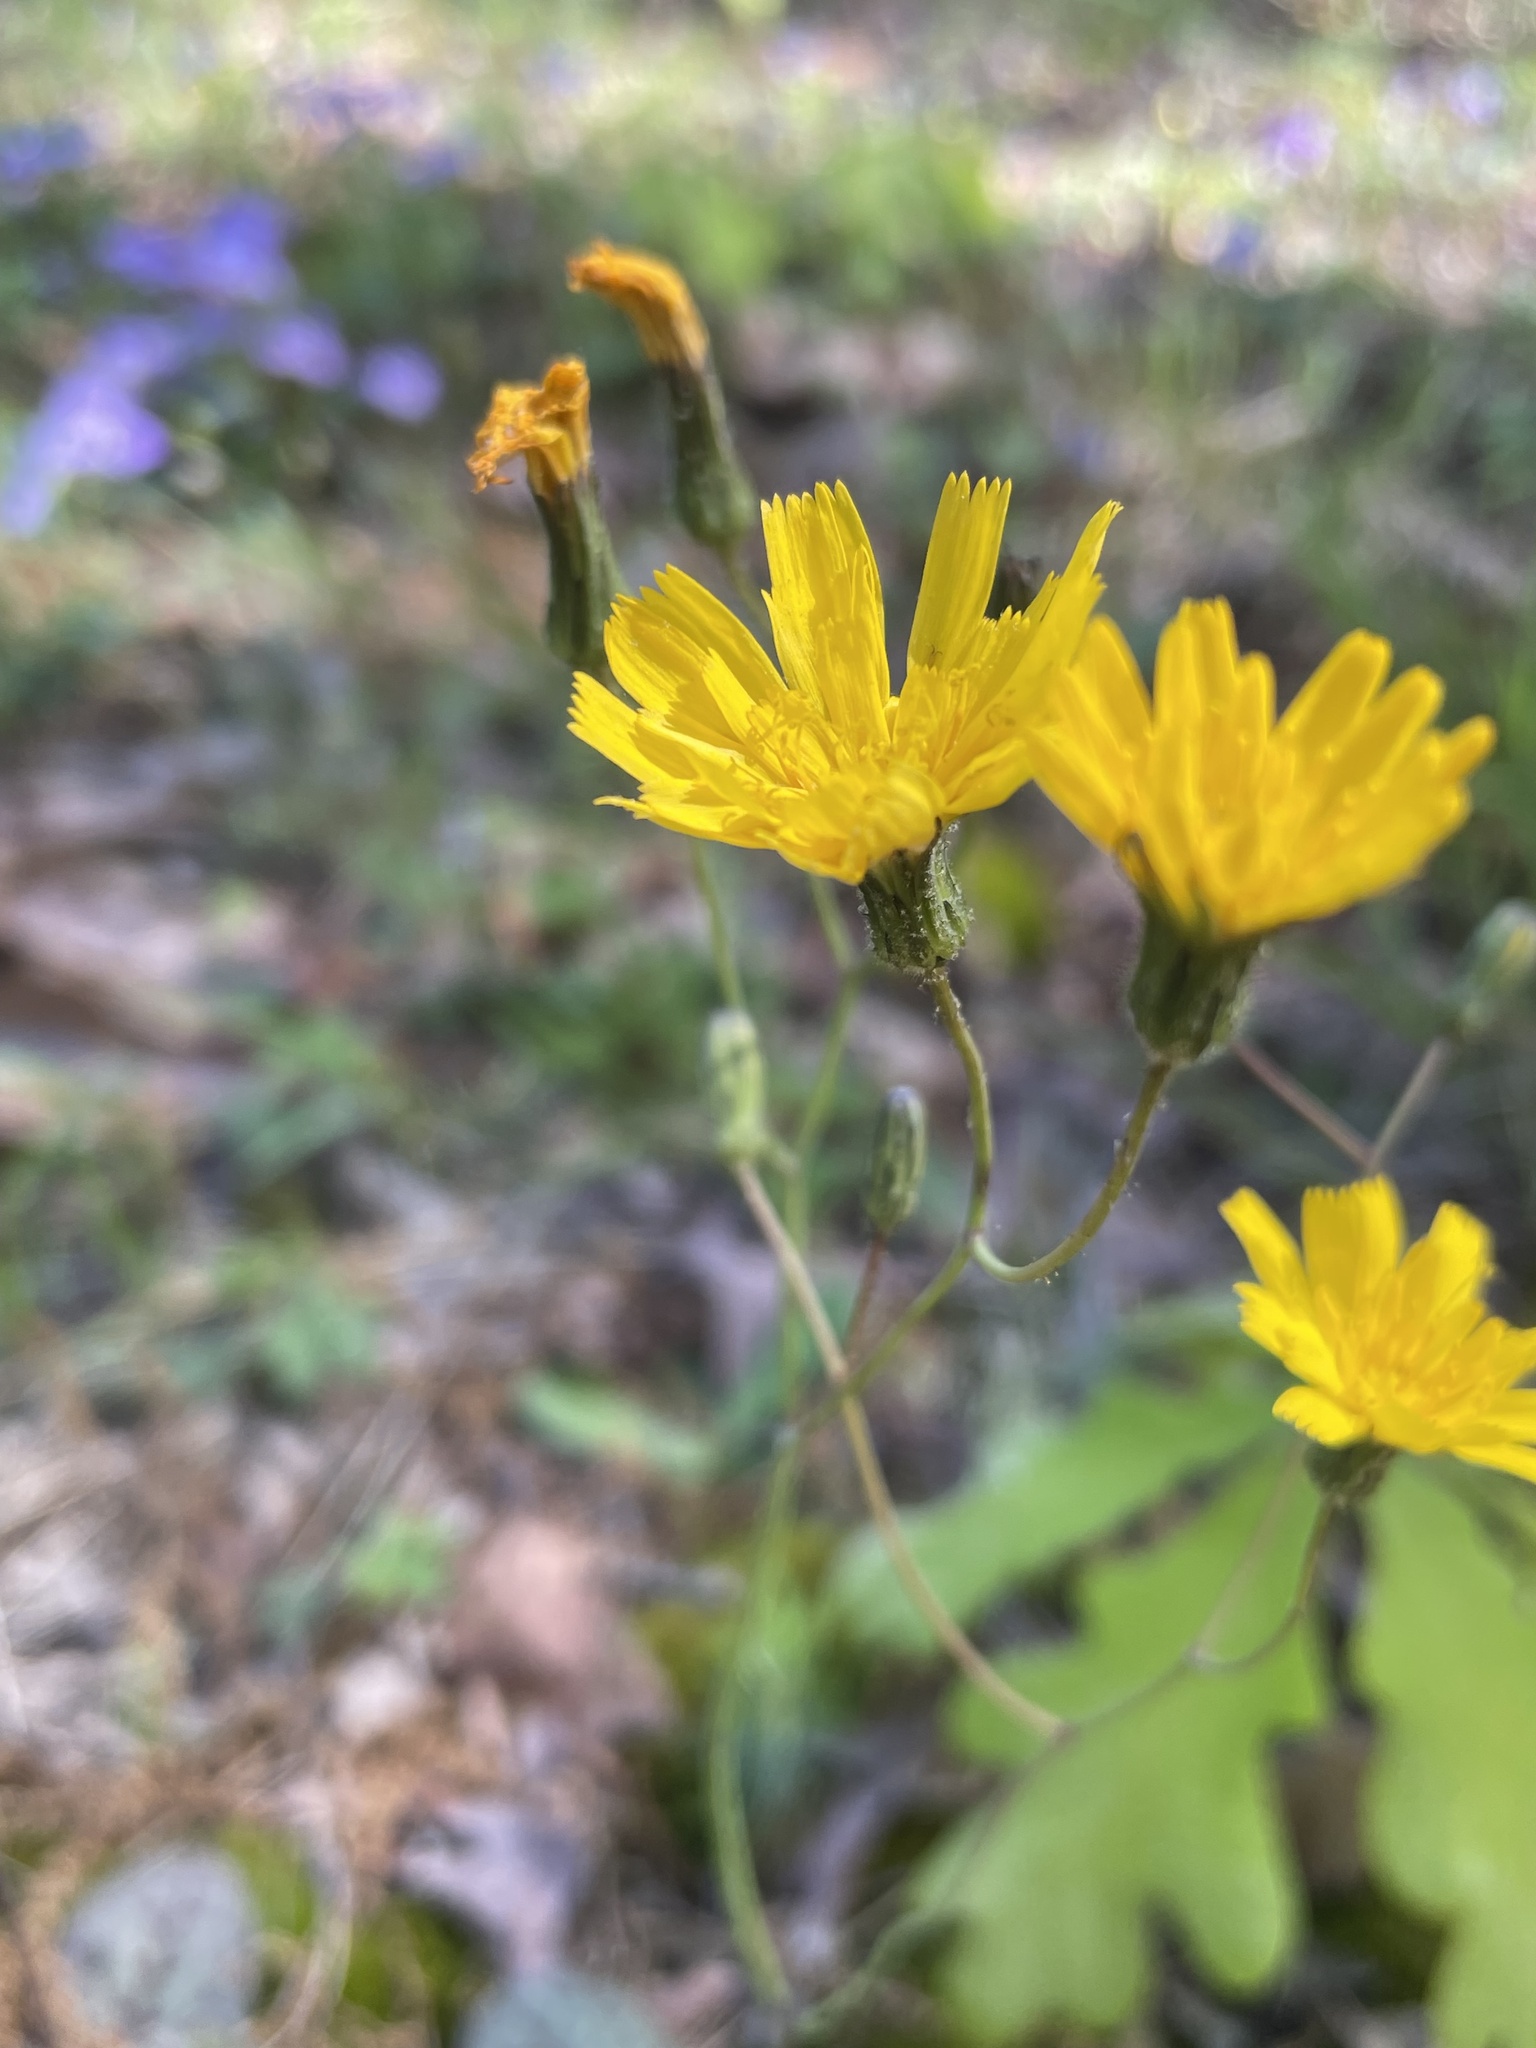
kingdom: Plantae
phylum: Tracheophyta
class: Magnoliopsida
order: Asterales
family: Asteraceae
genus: Hieracium
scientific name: Hieracium venosum
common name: Rattlesnake hawkweed
